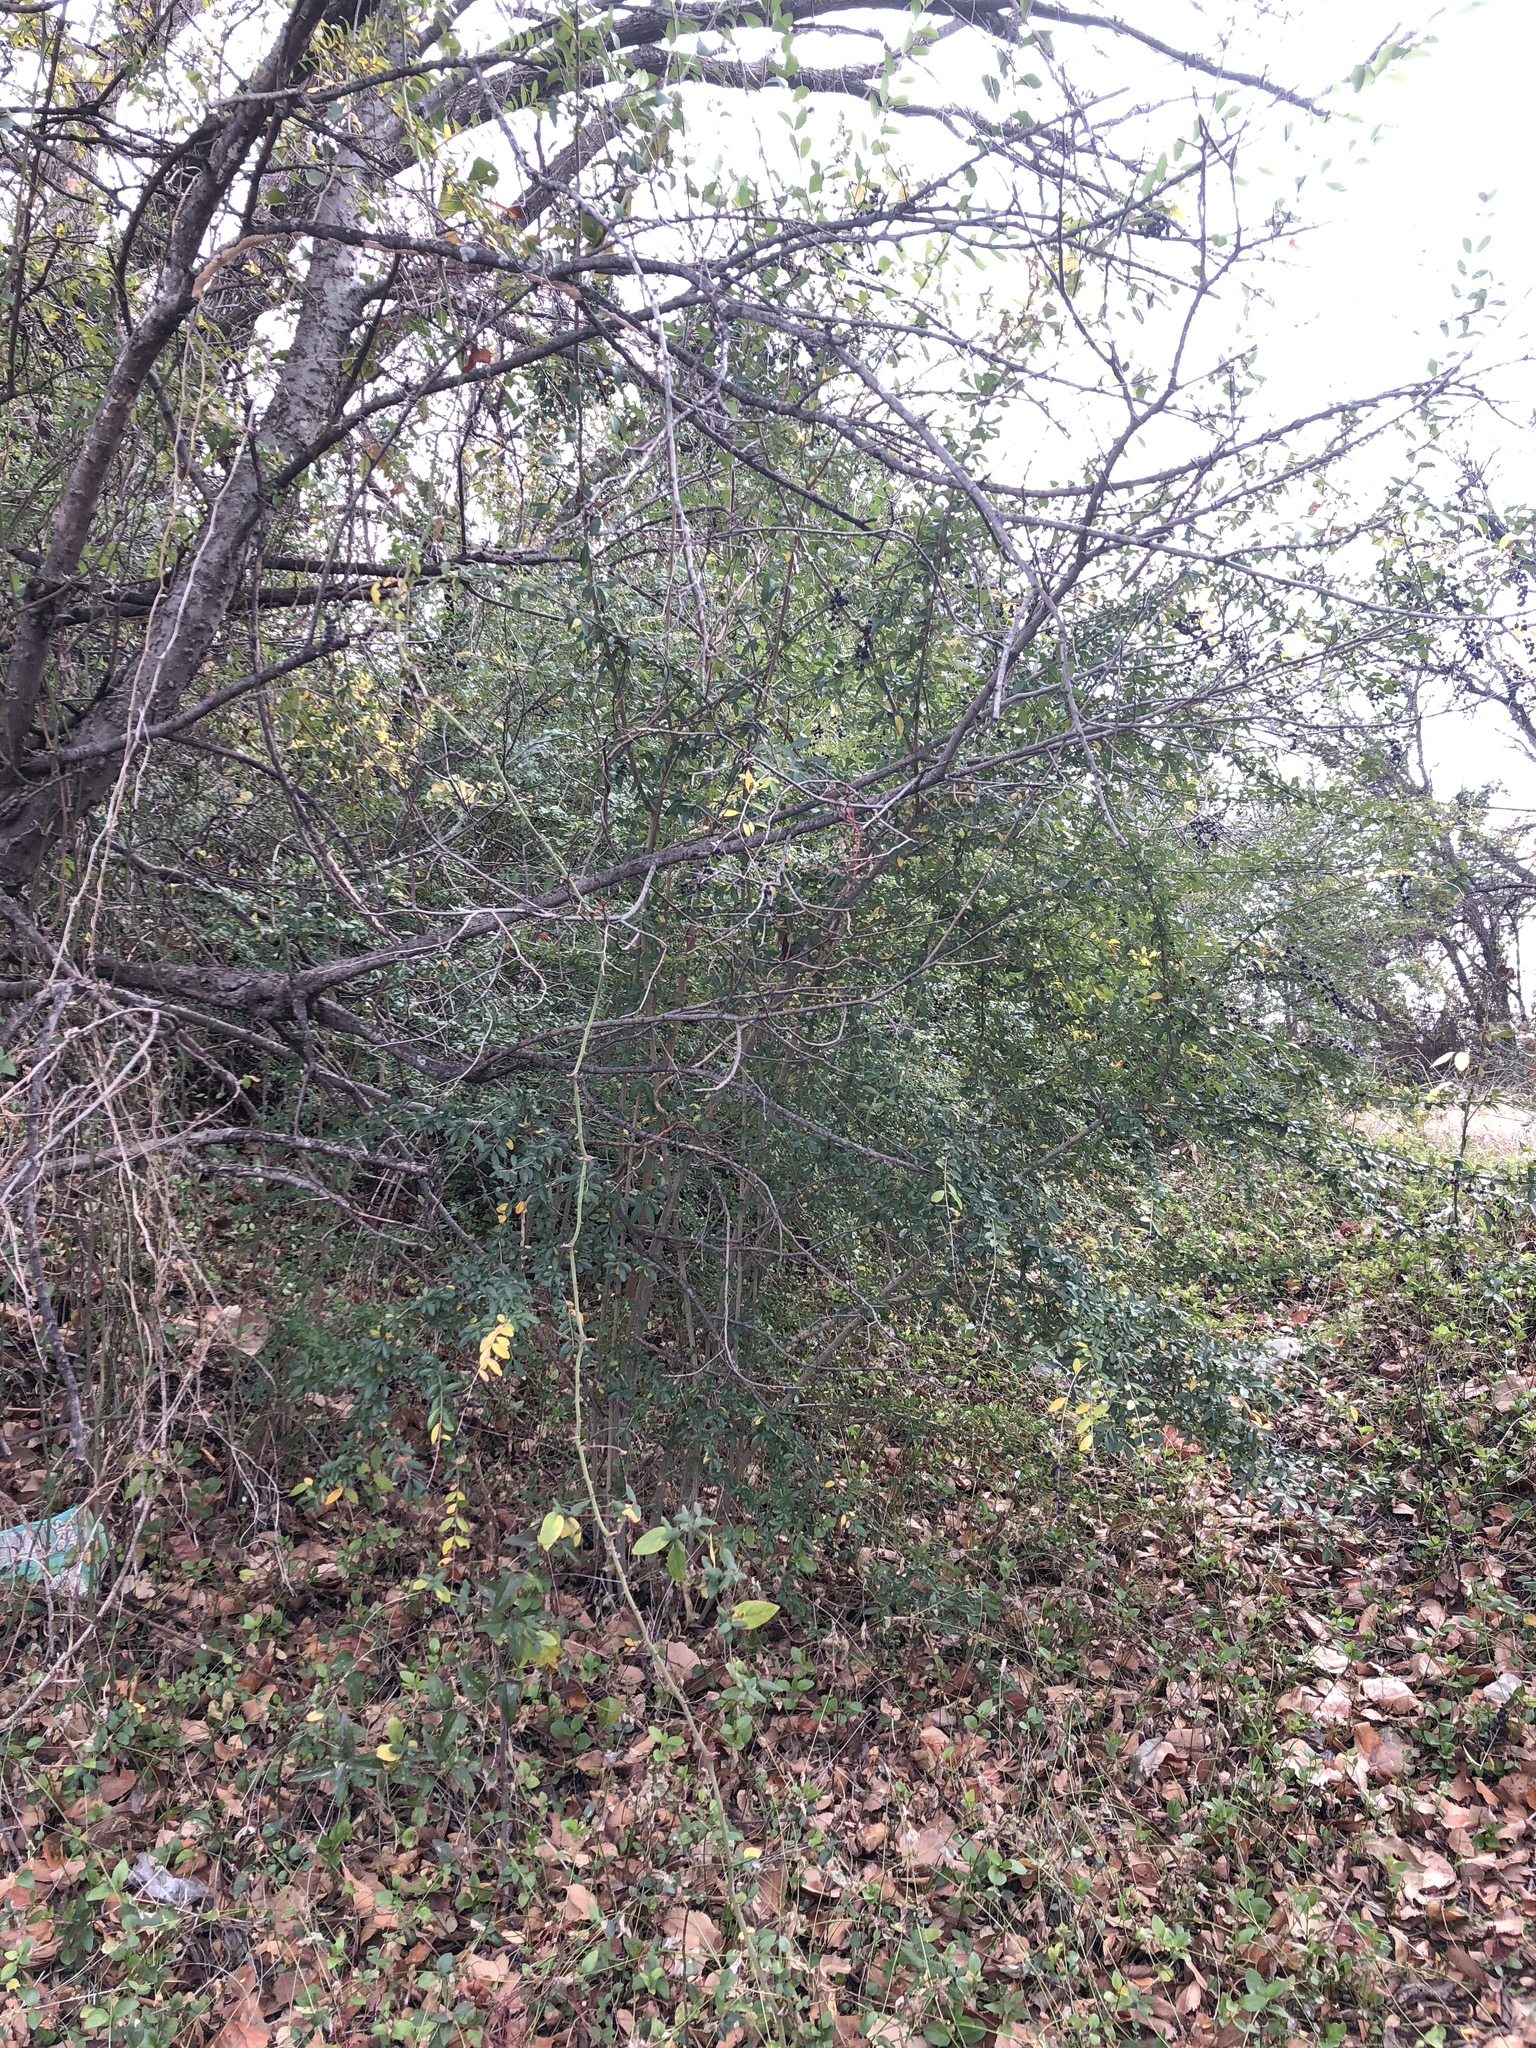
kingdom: Plantae
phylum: Tracheophyta
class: Magnoliopsida
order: Lamiales
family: Oleaceae
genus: Ligustrum
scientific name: Ligustrum quihoui
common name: Waxyleaf privet
